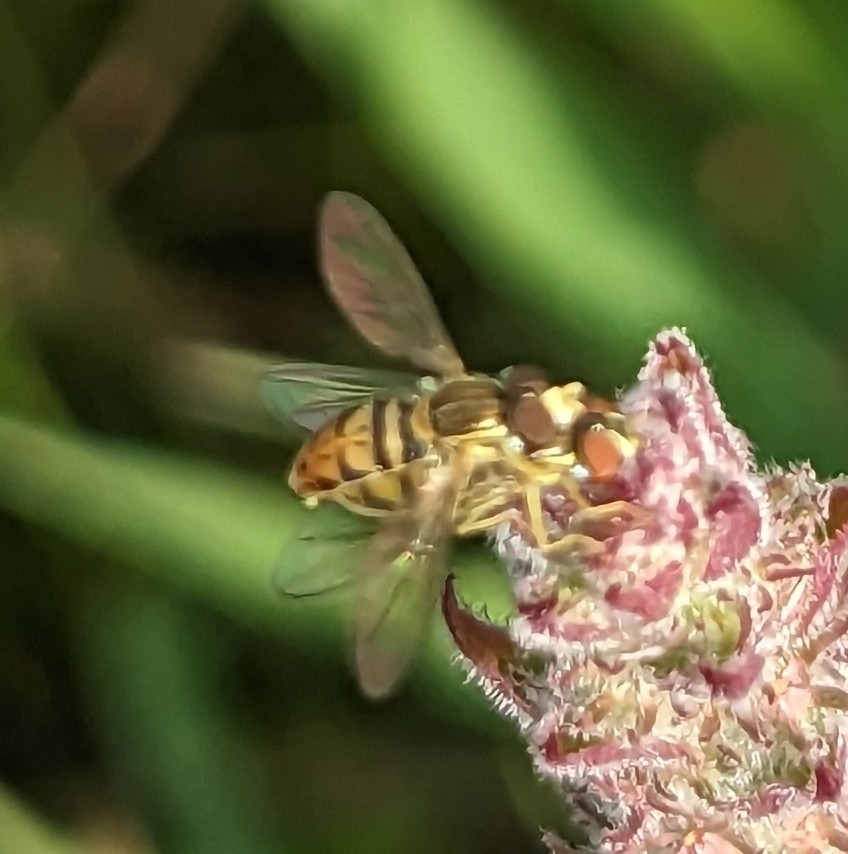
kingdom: Animalia
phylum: Arthropoda
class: Insecta
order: Diptera
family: Syrphidae
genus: Toxomerus
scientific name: Toxomerus marginatus
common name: Syrphid fly
